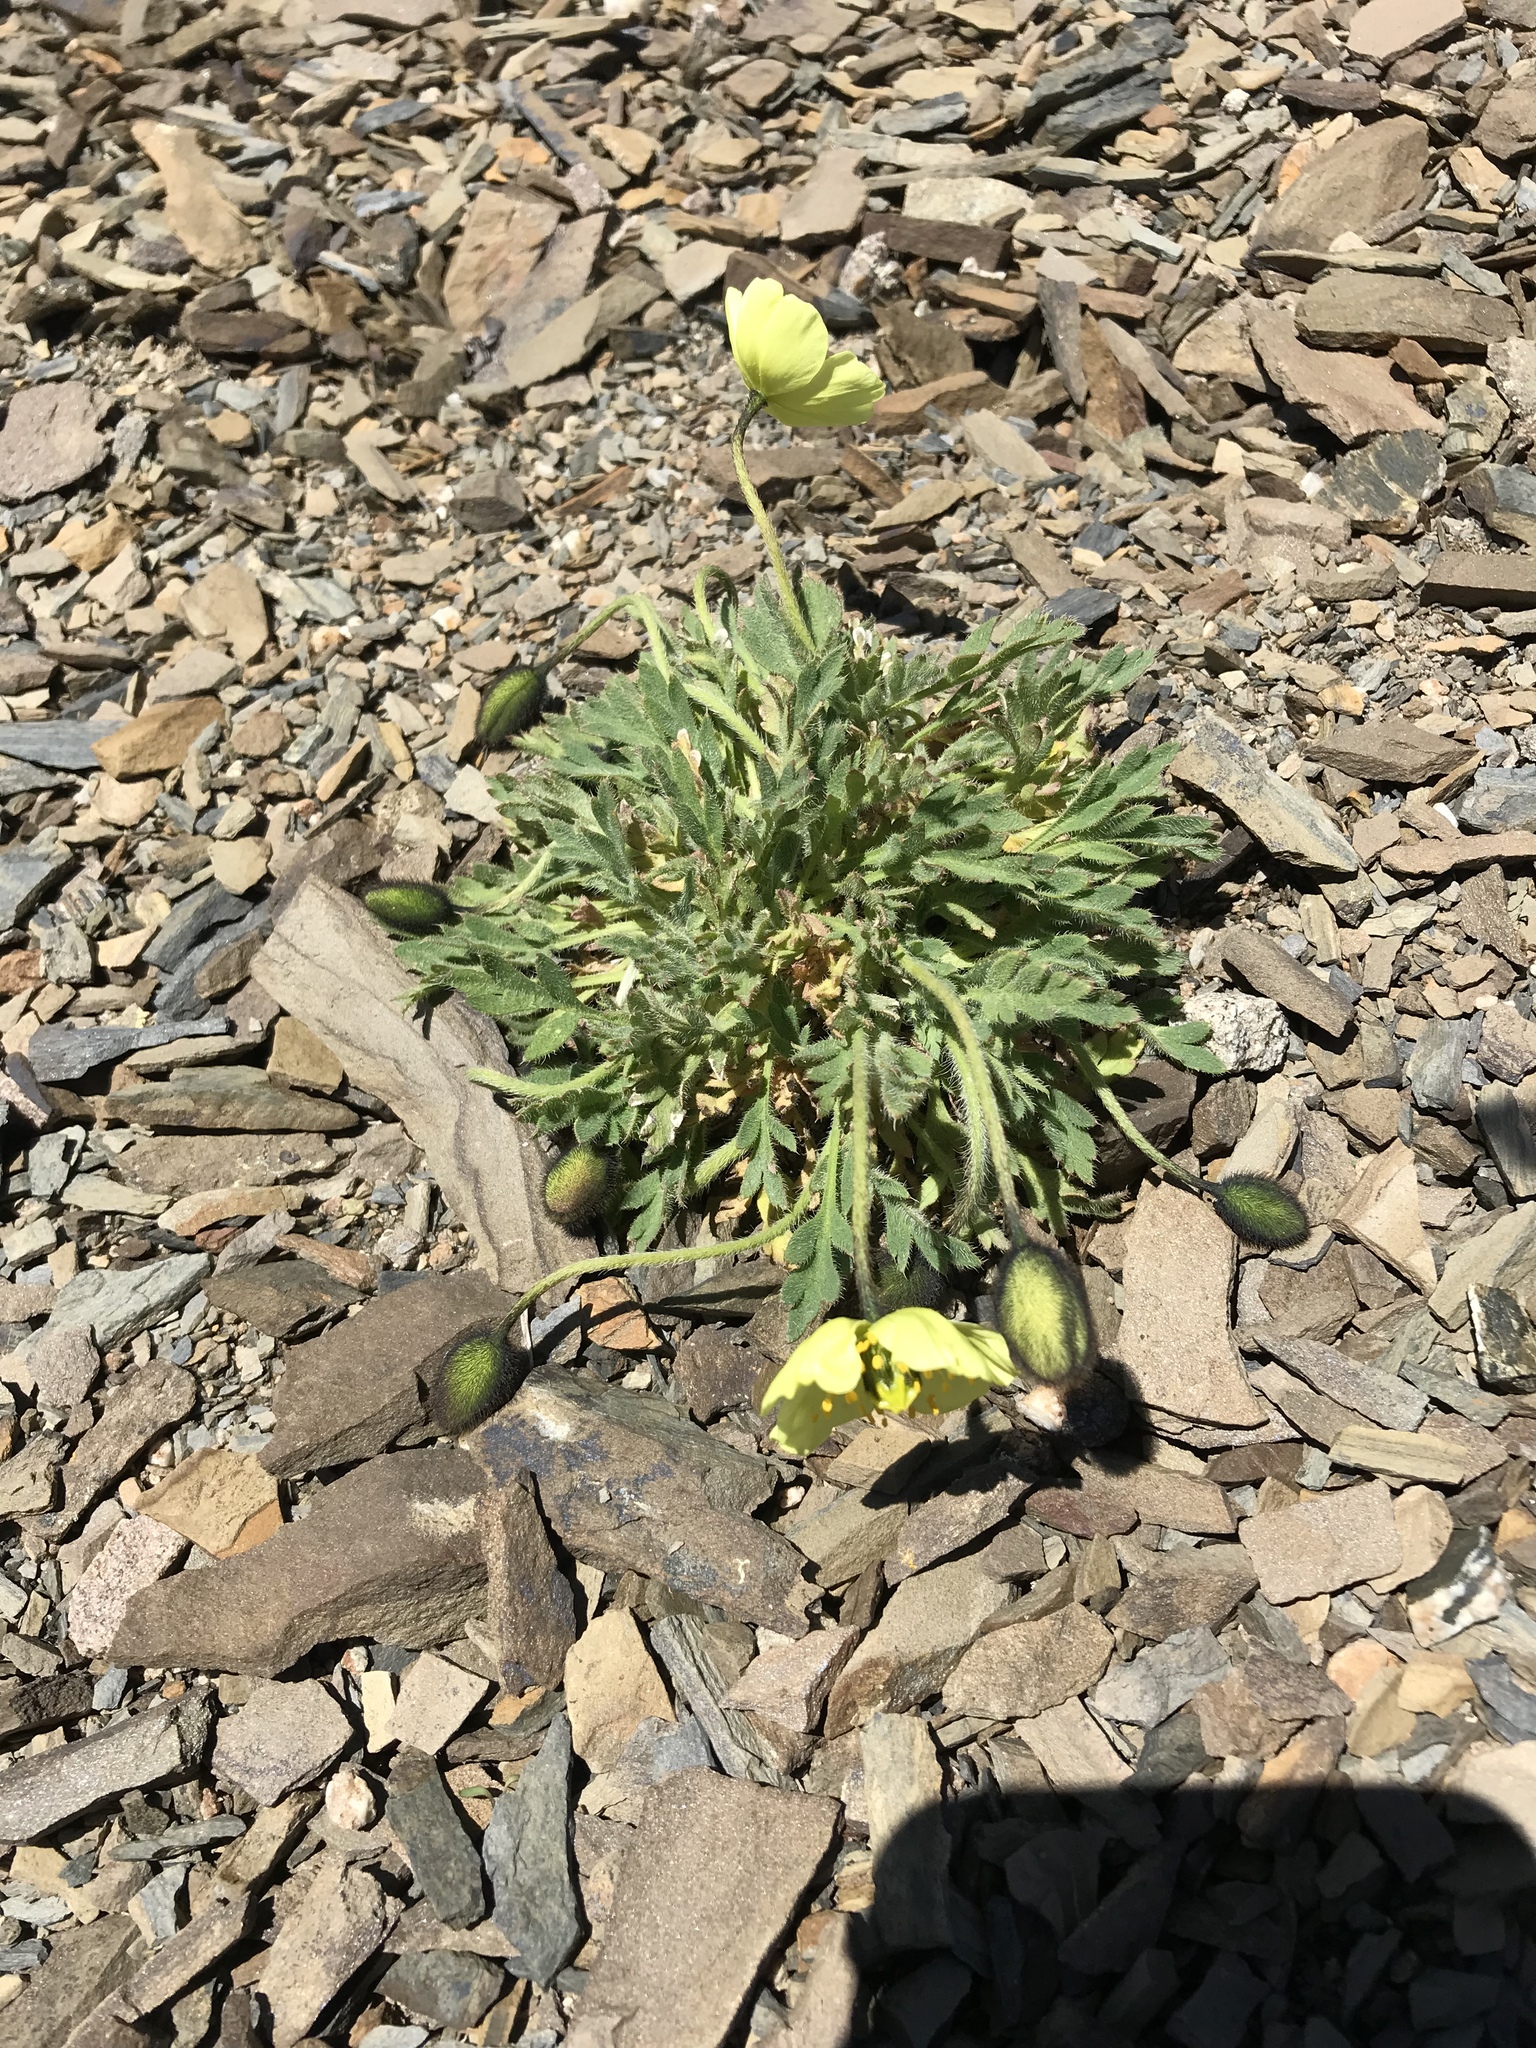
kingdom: Plantae
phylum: Tracheophyta
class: Magnoliopsida
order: Ranunculales
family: Papaveraceae
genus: Papaver
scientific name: Papaver radicatum
